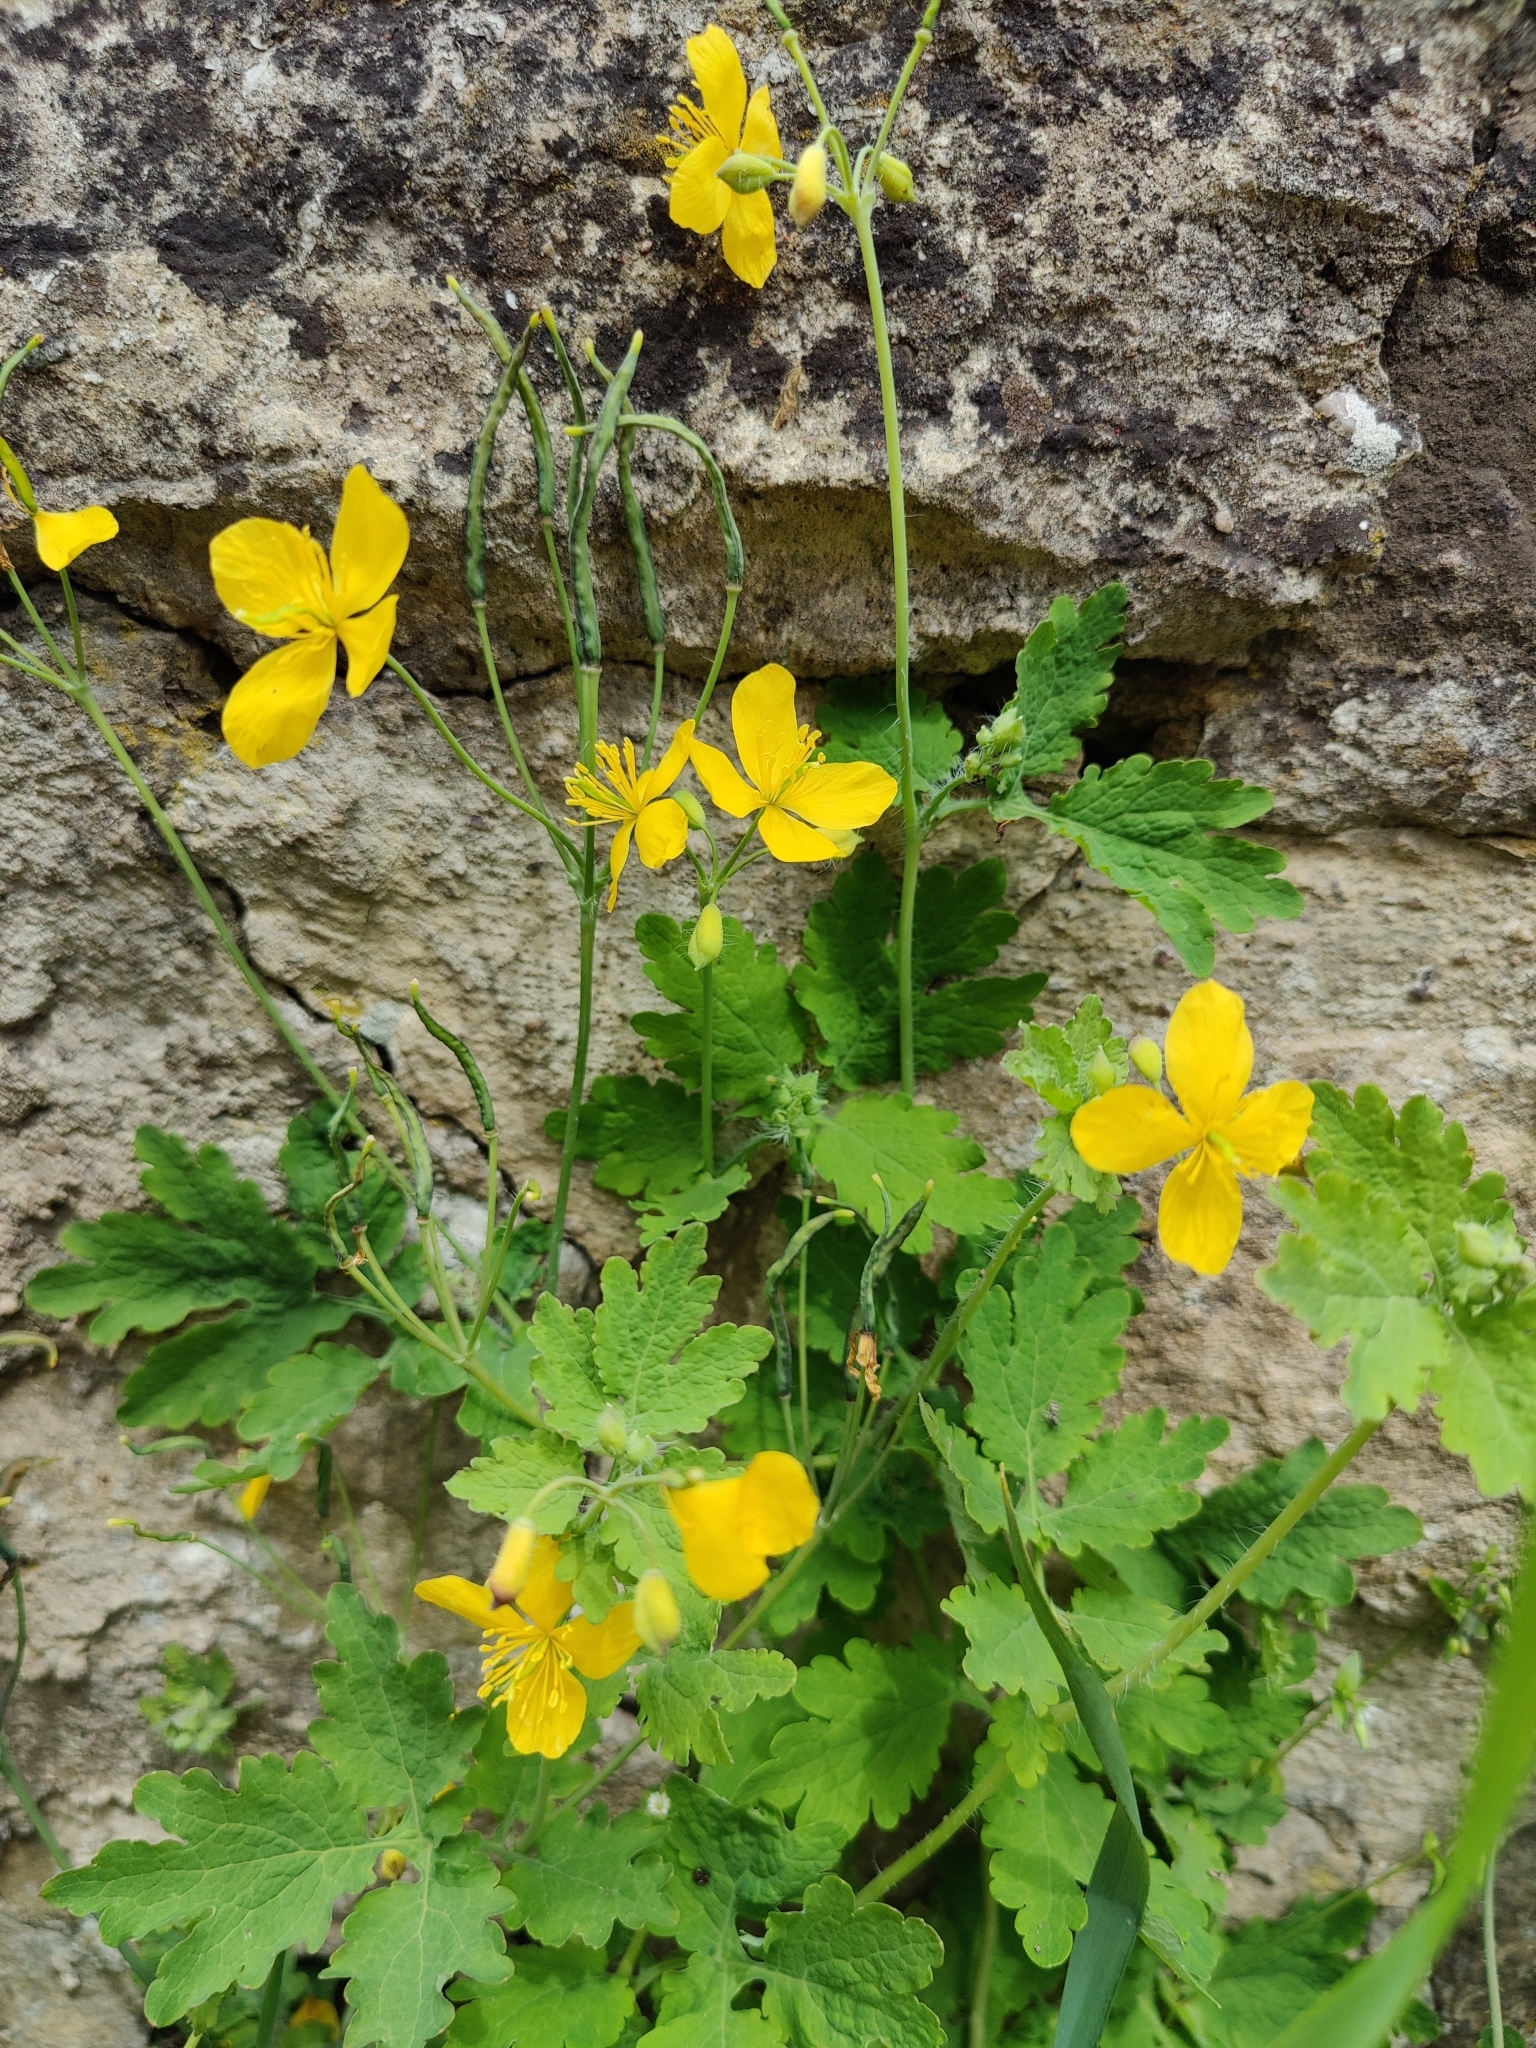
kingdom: Plantae
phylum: Tracheophyta
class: Magnoliopsida
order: Ranunculales
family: Papaveraceae
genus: Chelidonium
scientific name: Chelidonium majus
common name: Greater celandine
